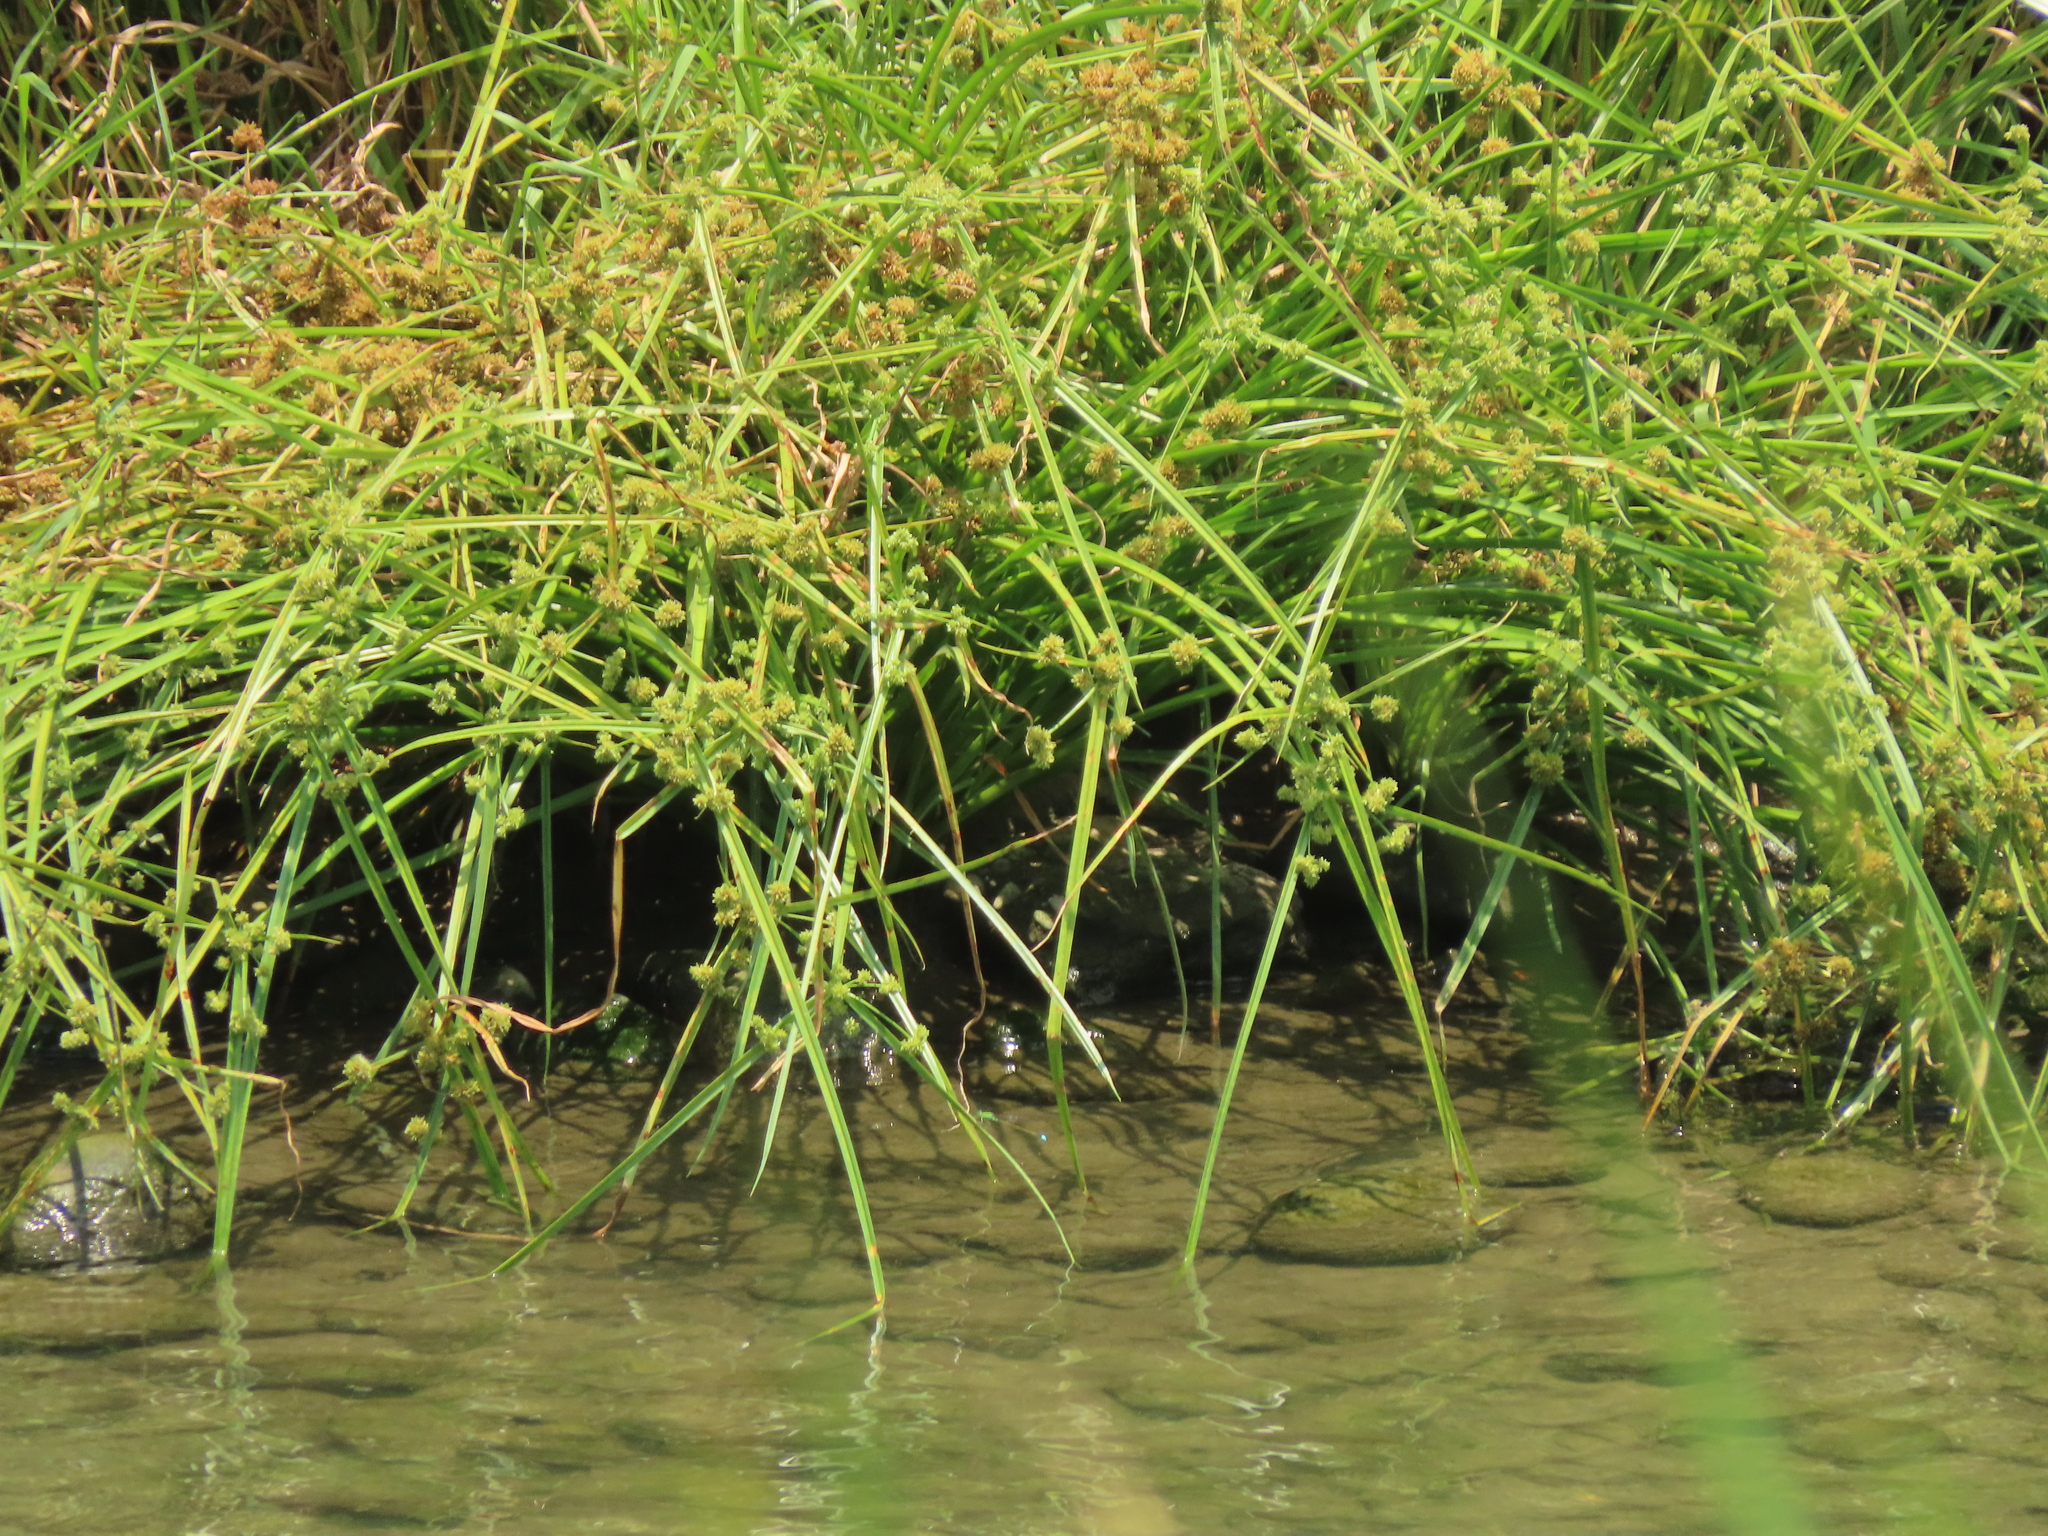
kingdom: Plantae
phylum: Tracheophyta
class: Liliopsida
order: Poales
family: Cyperaceae
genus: Cyperus
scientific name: Cyperus difformis
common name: Variable flatsedge
